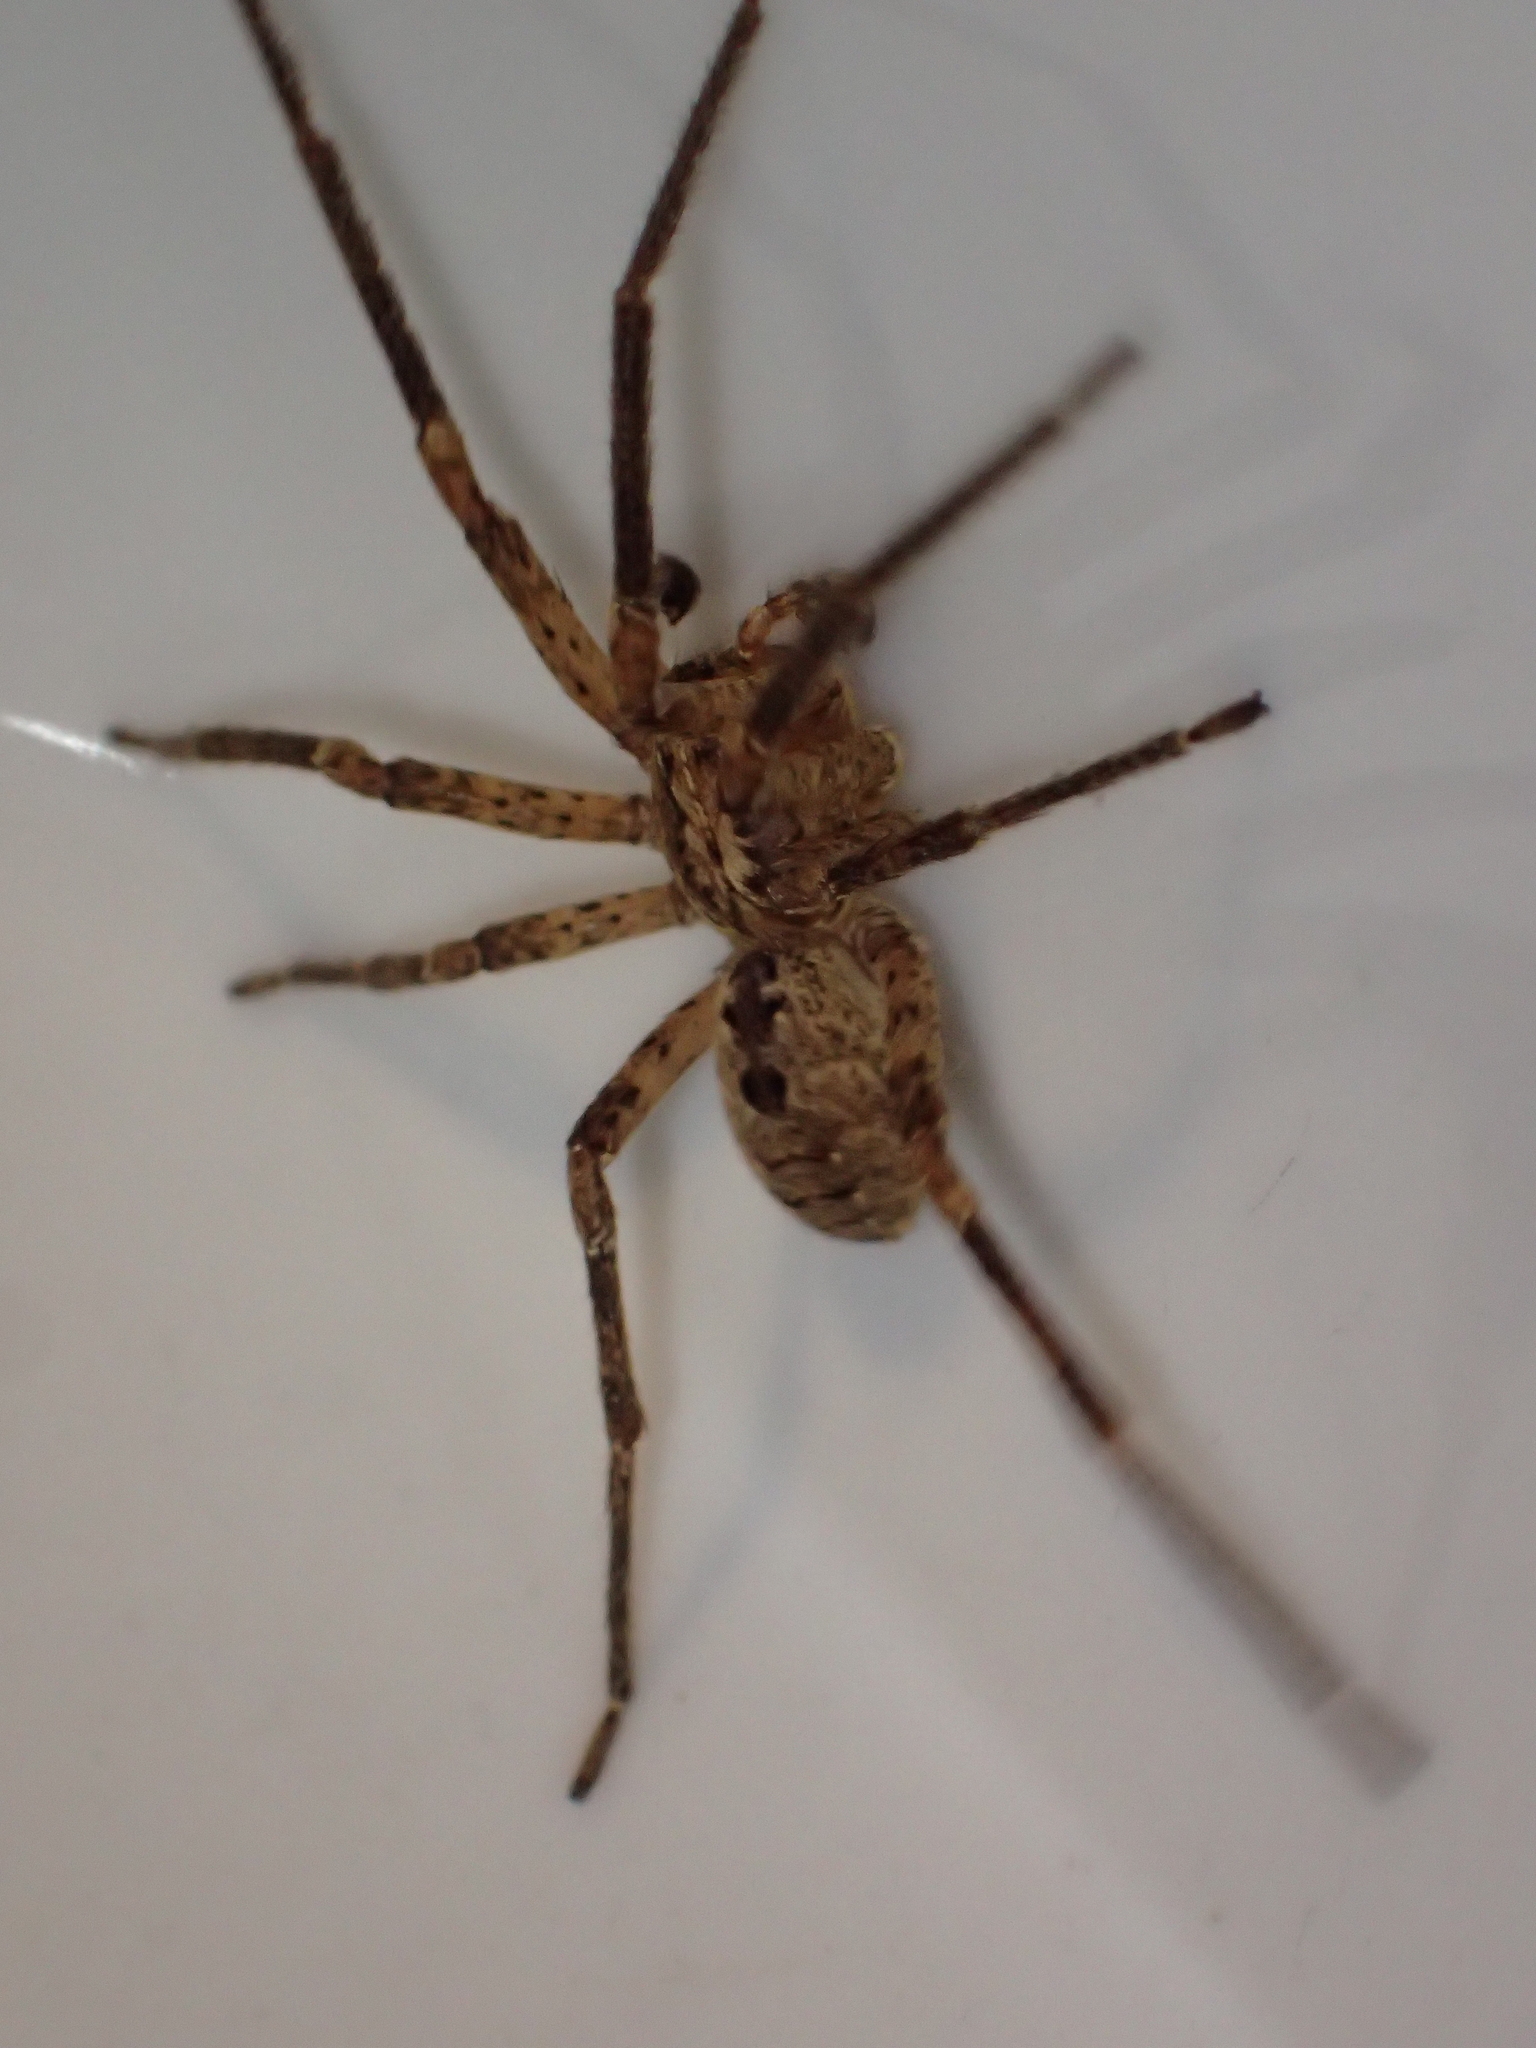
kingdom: Animalia
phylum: Arthropoda
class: Arachnida
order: Araneae
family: Zoropsidae
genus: Zoropsis
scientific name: Zoropsis spinimana
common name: Zoropsid spider
